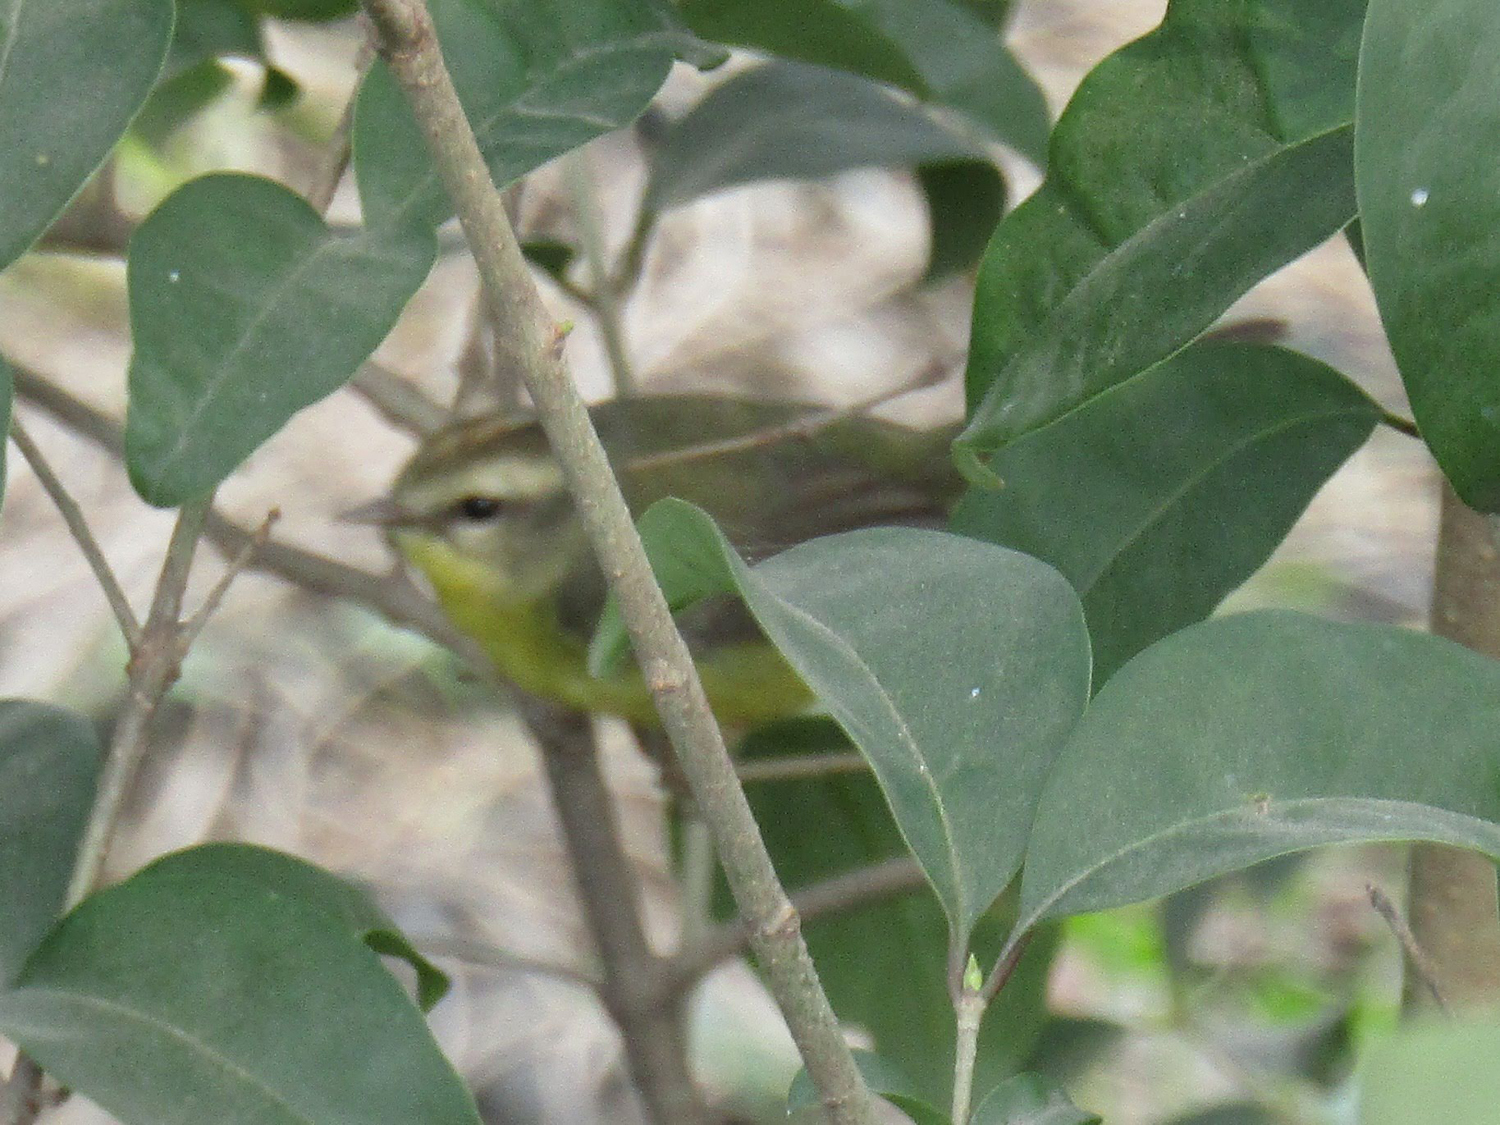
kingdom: Animalia
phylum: Chordata
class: Aves
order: Passeriformes
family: Parulidae
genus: Basileuterus
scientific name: Basileuterus culicivorus
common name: Golden-crowned warbler
